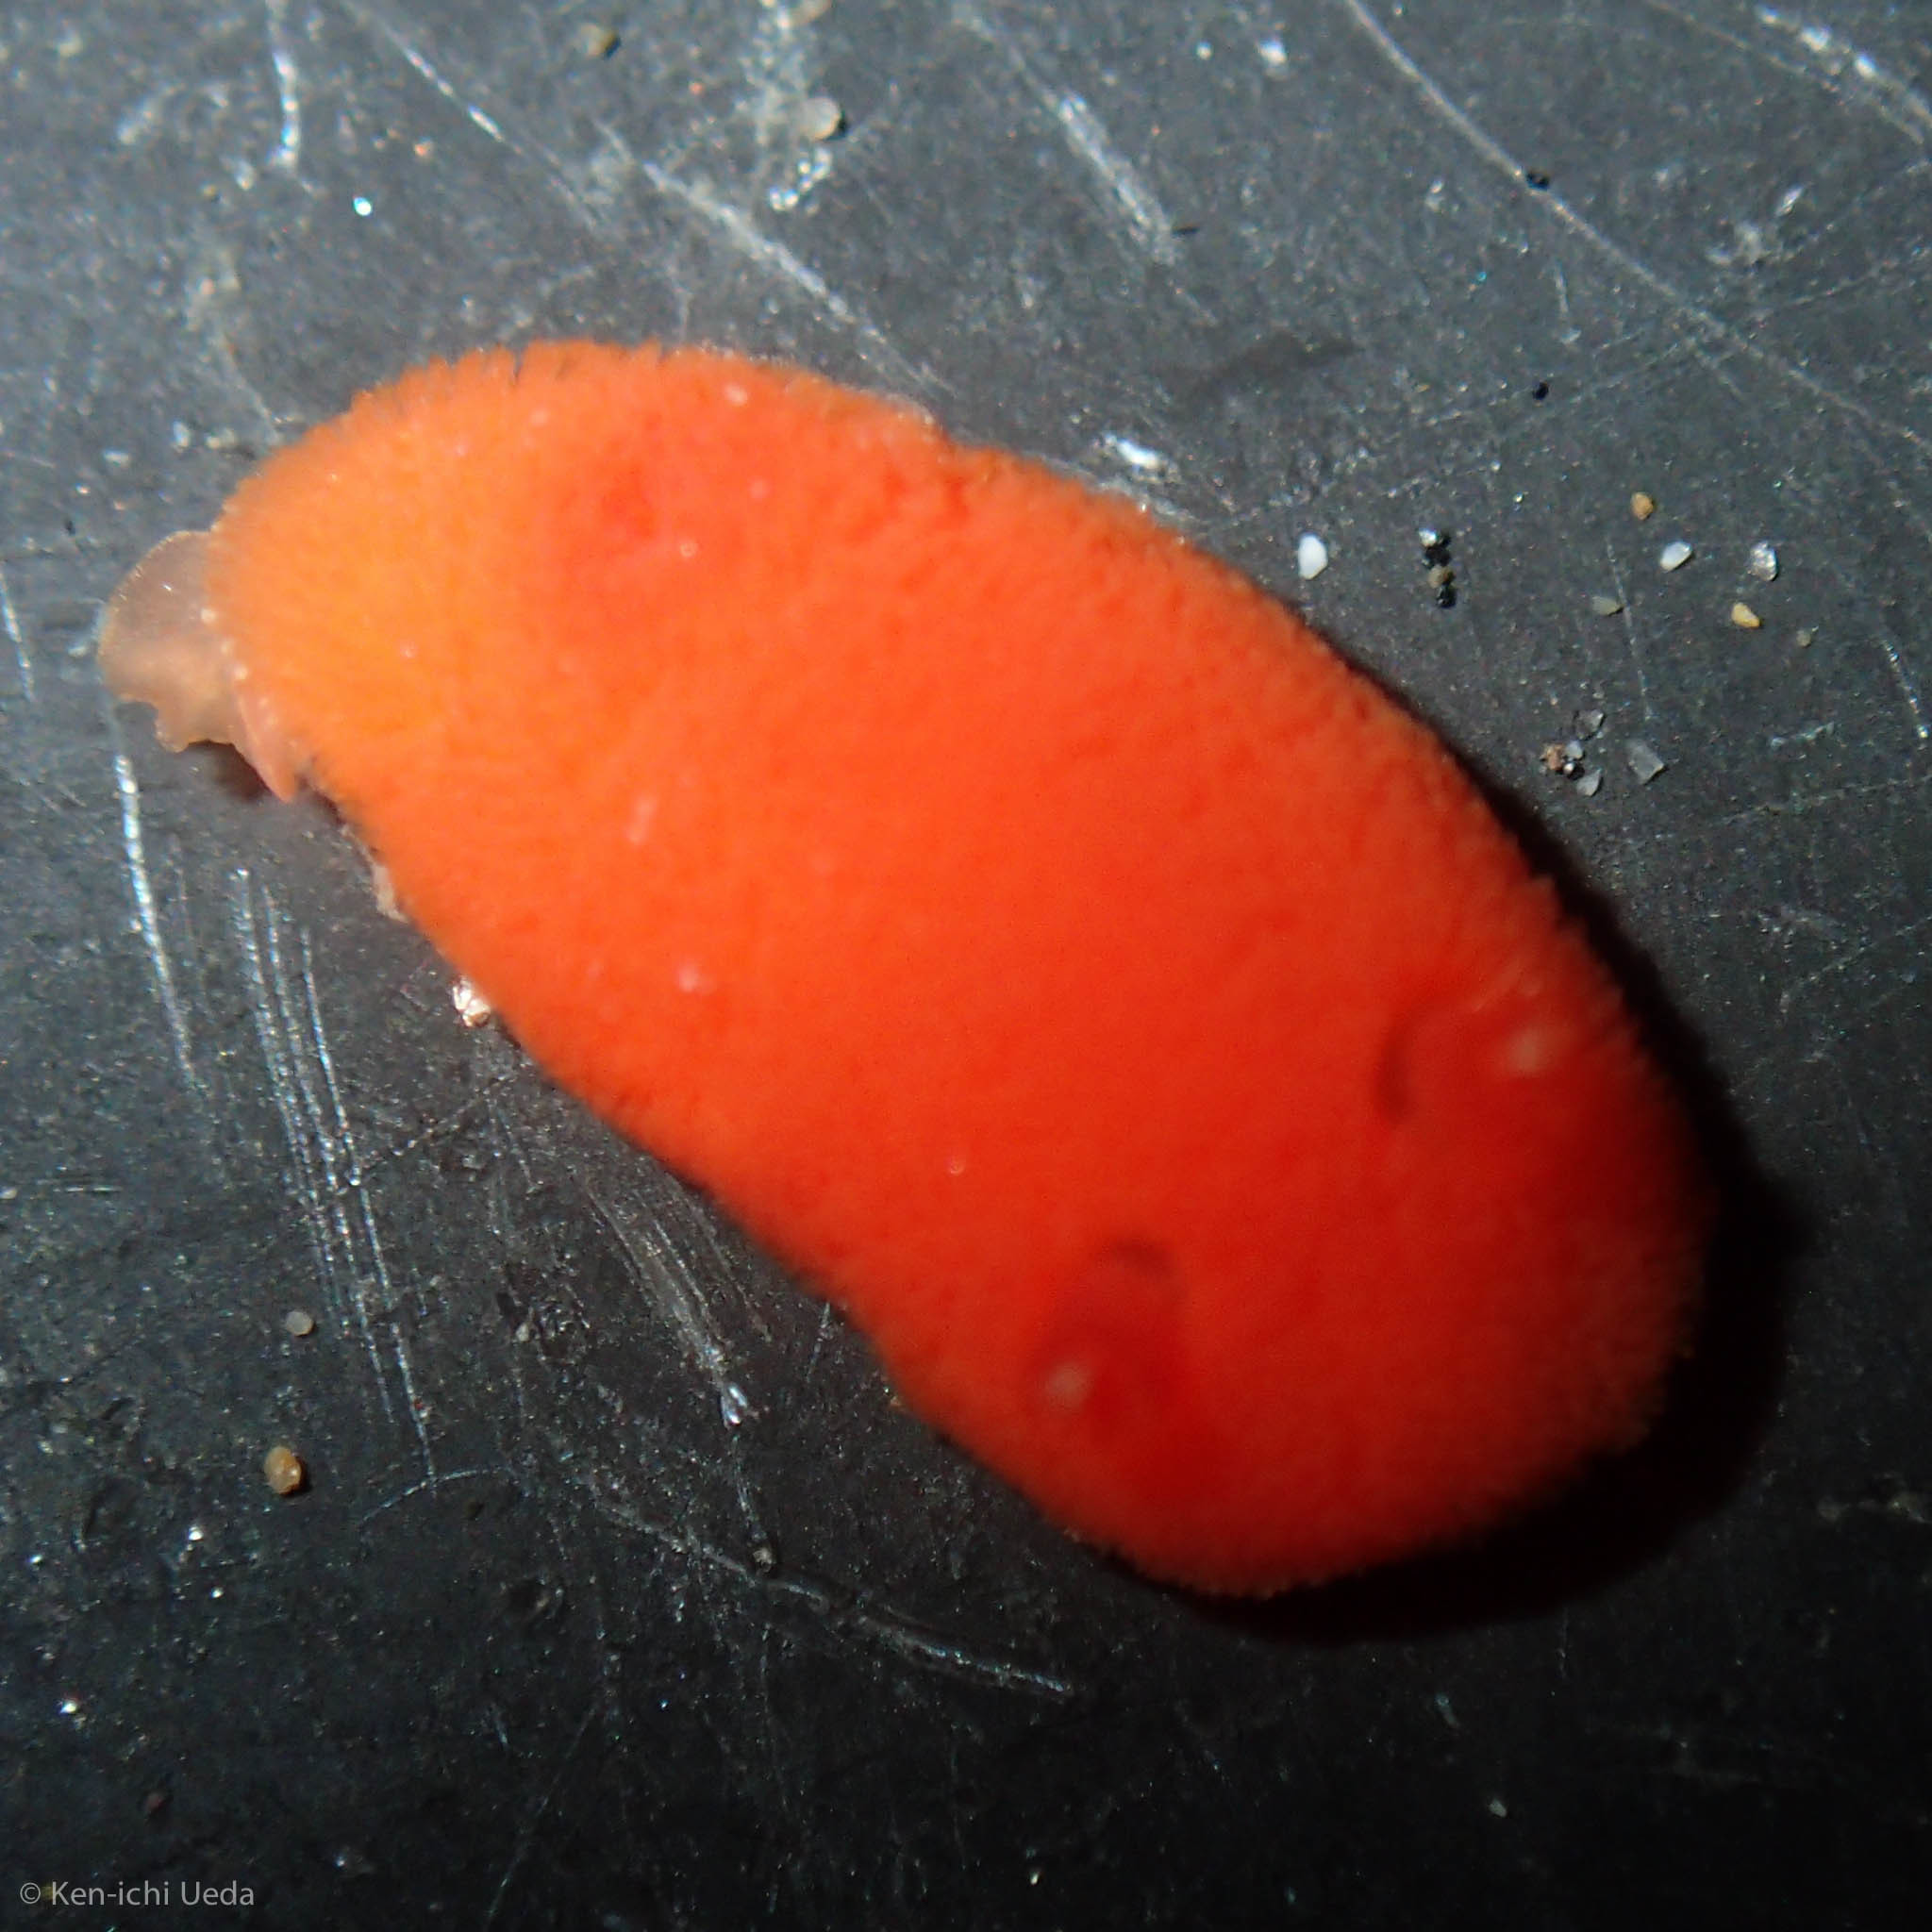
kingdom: Animalia
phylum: Mollusca
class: Gastropoda
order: Nudibranchia
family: Discodorididae
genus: Rostanga
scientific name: Rostanga pulchra
